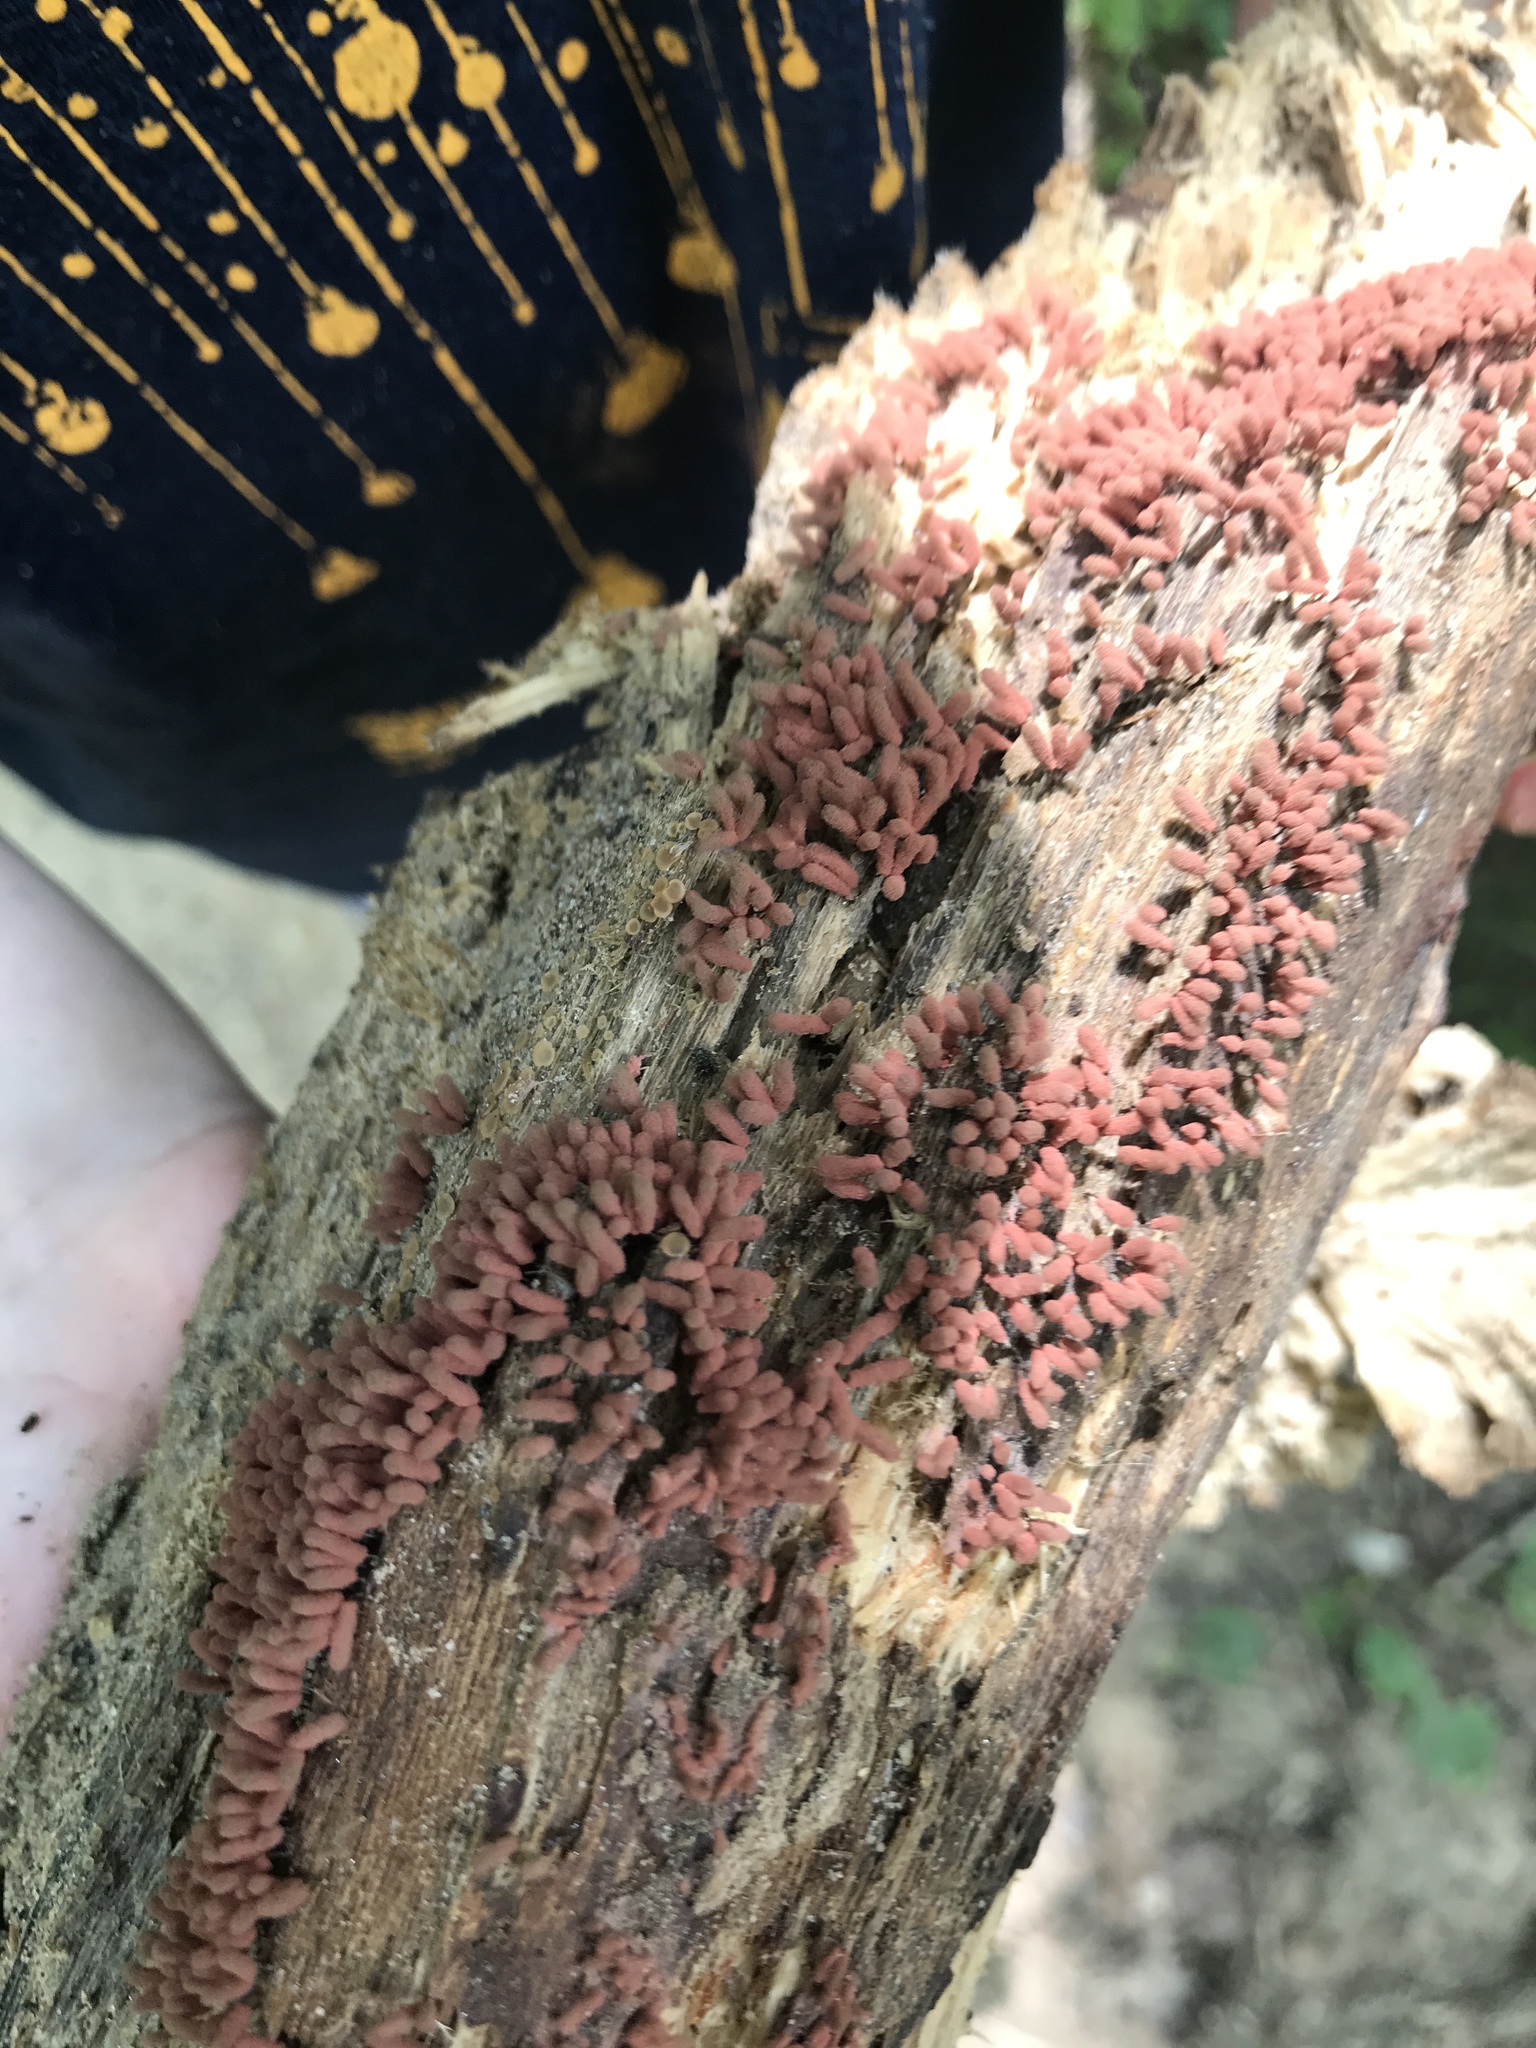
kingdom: Protozoa
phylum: Mycetozoa
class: Myxomycetes
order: Trichiales
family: Arcyriaceae
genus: Arcyria
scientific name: Arcyria denudata
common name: Carnival candy slime mold
